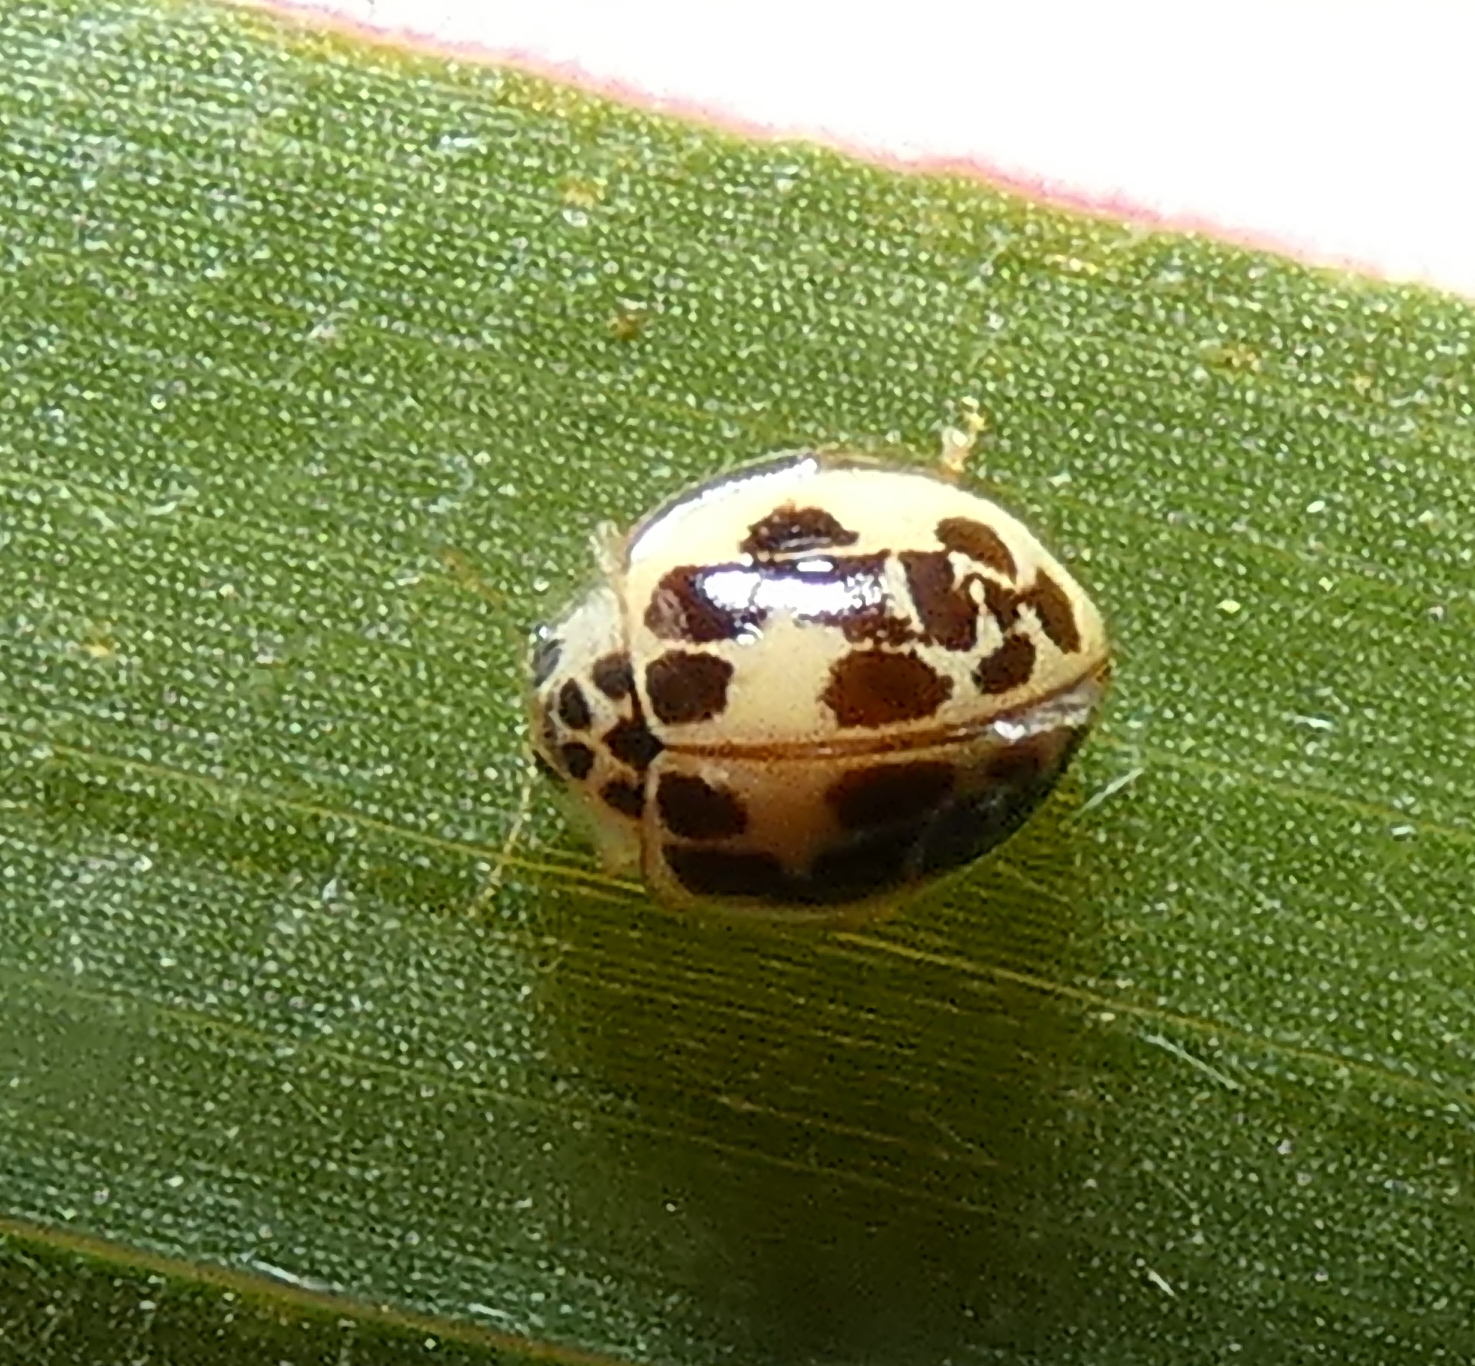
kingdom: Animalia
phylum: Arthropoda
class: Insecta
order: Coleoptera
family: Coccinellidae
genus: Psyllobora
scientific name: Psyllobora confluens
